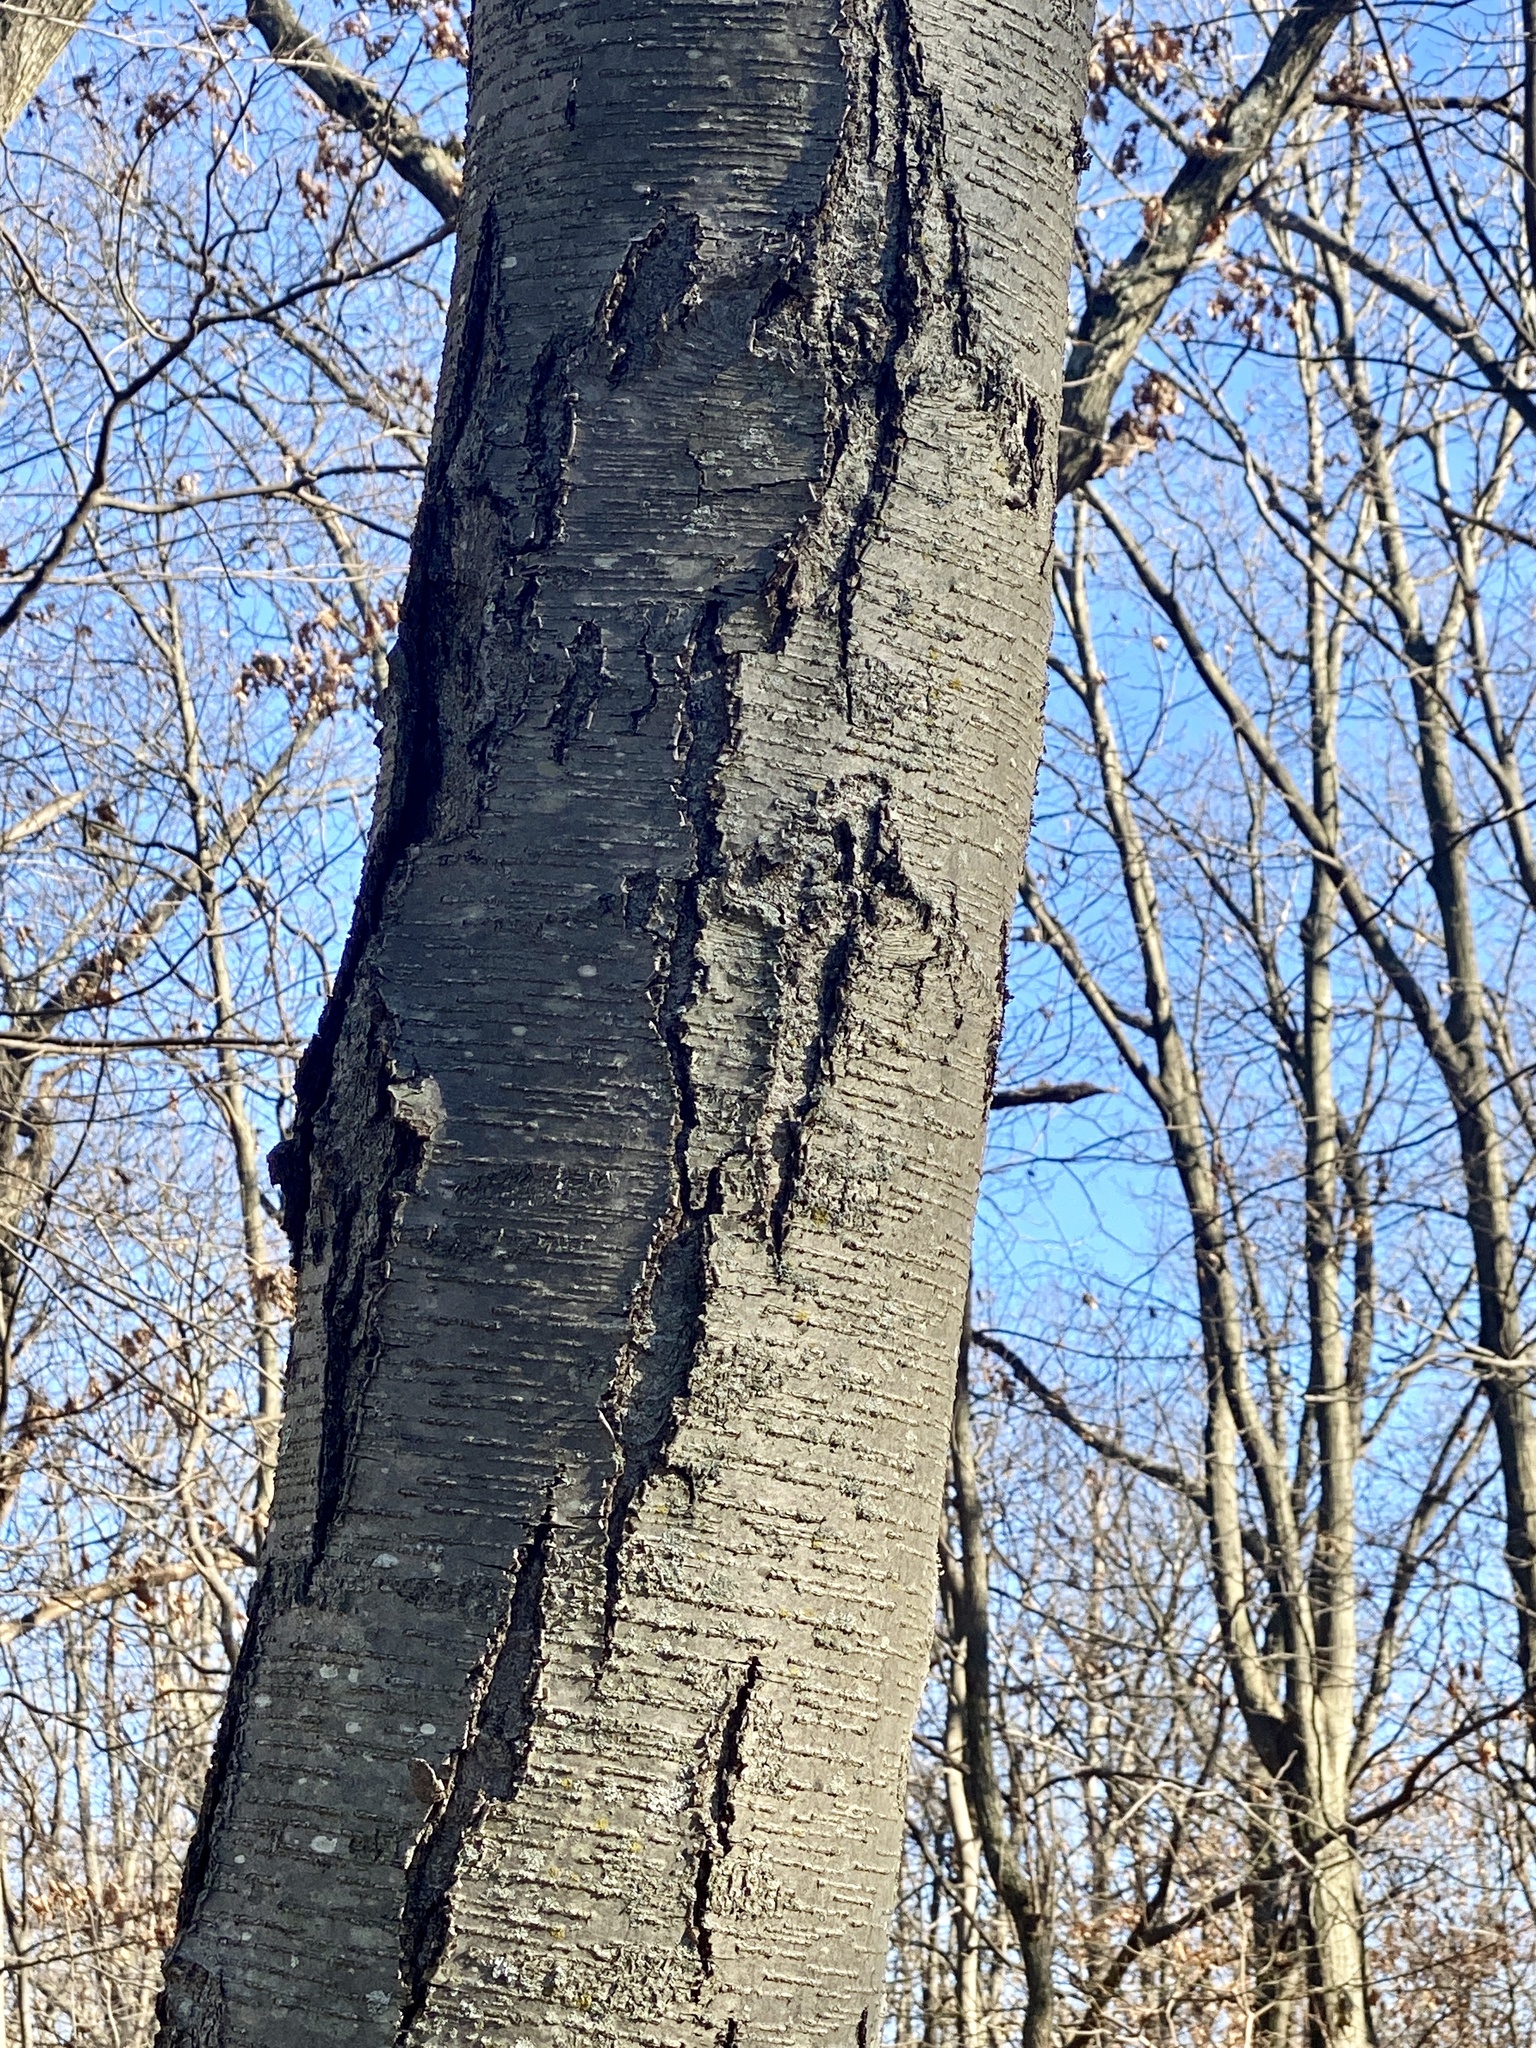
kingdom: Plantae
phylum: Tracheophyta
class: Magnoliopsida
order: Fagales
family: Betulaceae
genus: Betula
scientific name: Betula lenta
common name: Black birch
